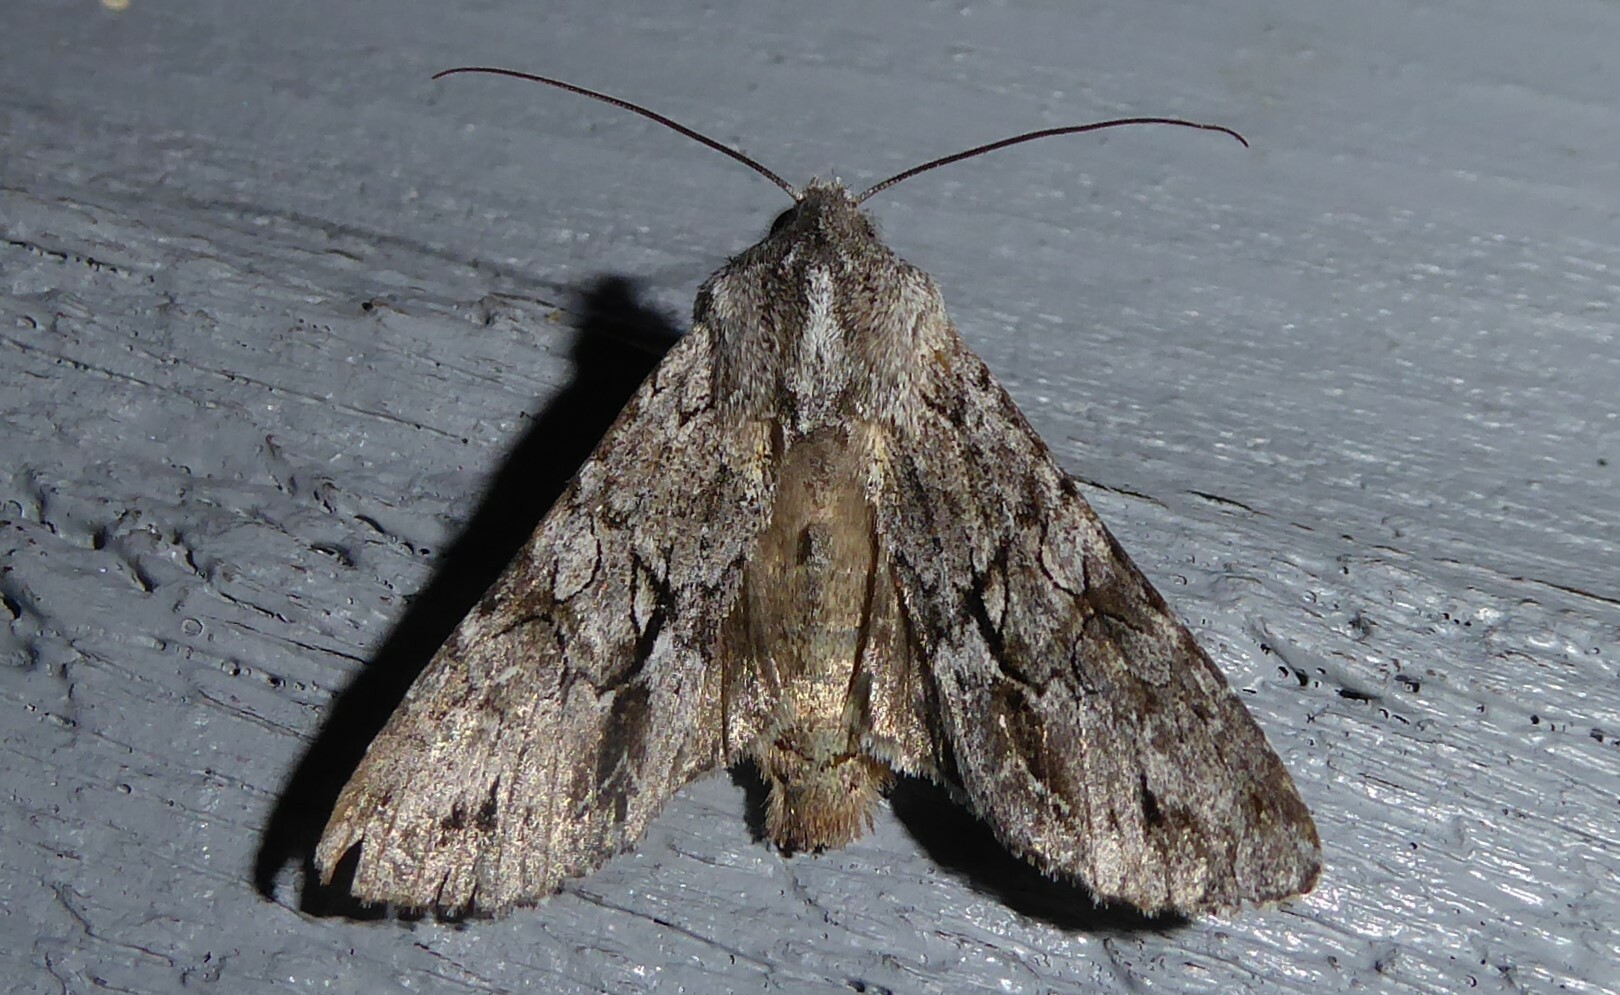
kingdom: Animalia
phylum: Arthropoda
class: Insecta
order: Lepidoptera
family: Noctuidae
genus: Ichneutica
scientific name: Ichneutica
